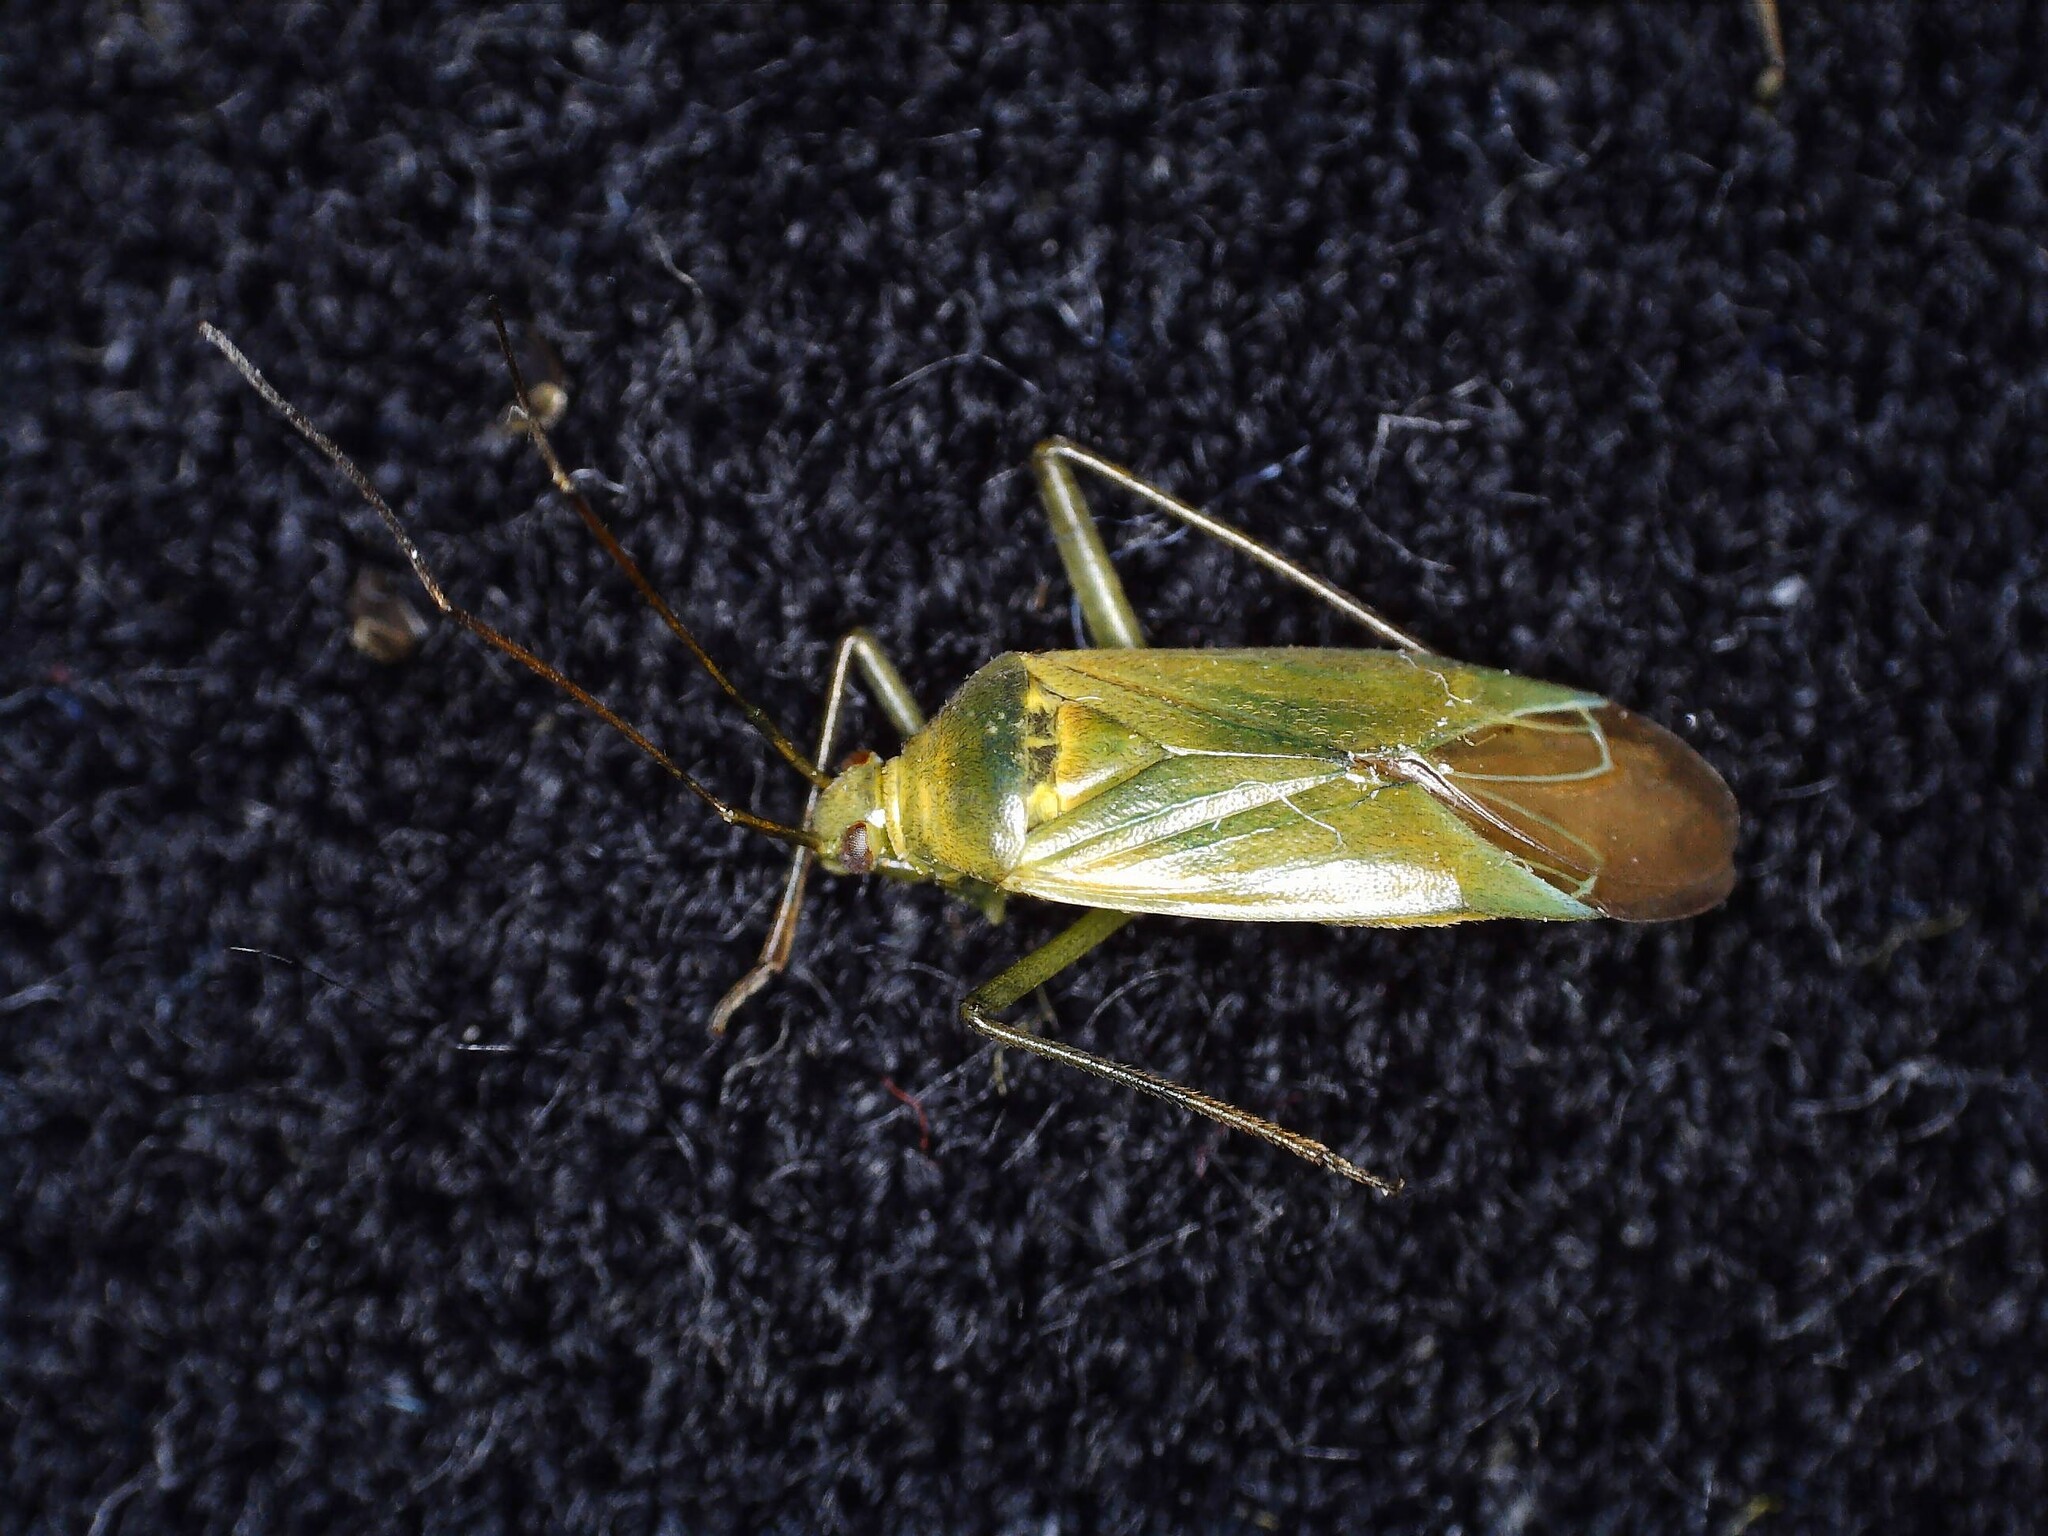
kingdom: Animalia
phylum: Arthropoda
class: Insecta
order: Hemiptera
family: Miridae
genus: Calocoris
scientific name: Calocoris affinis
